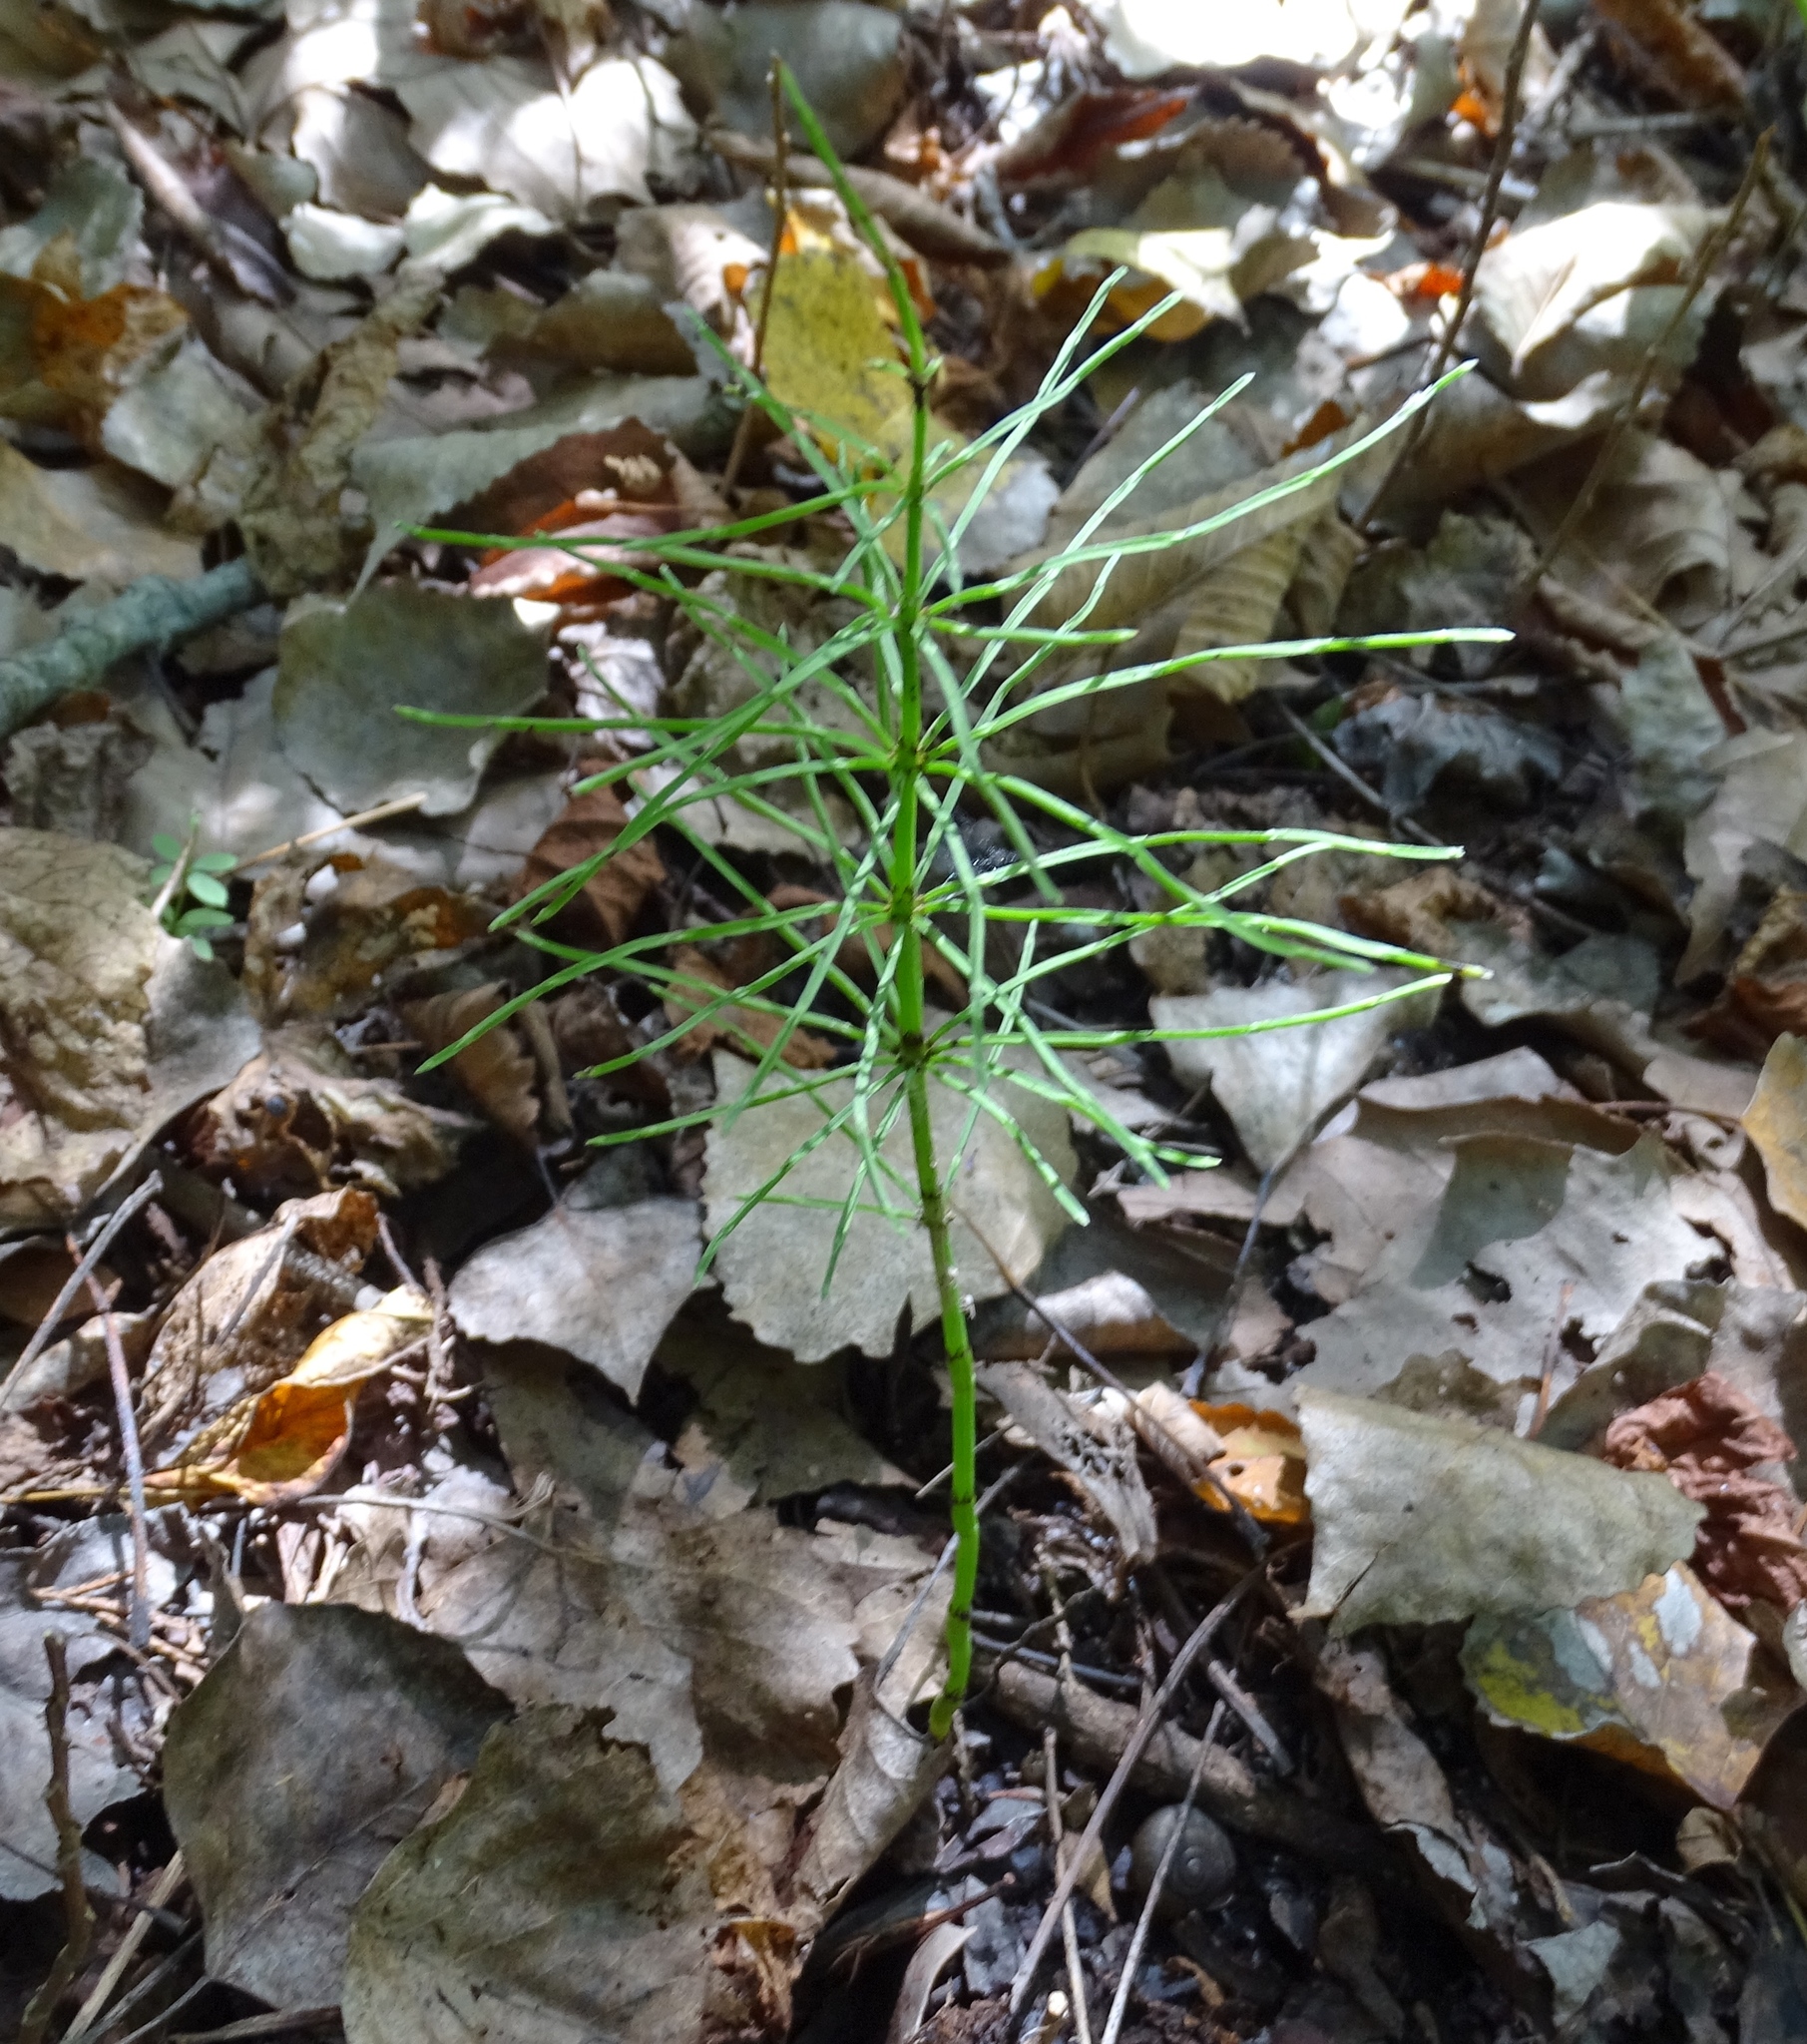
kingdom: Plantae
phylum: Tracheophyta
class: Polypodiopsida
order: Equisetales
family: Equisetaceae
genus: Equisetum
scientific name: Equisetum arvense
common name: Field horsetail
